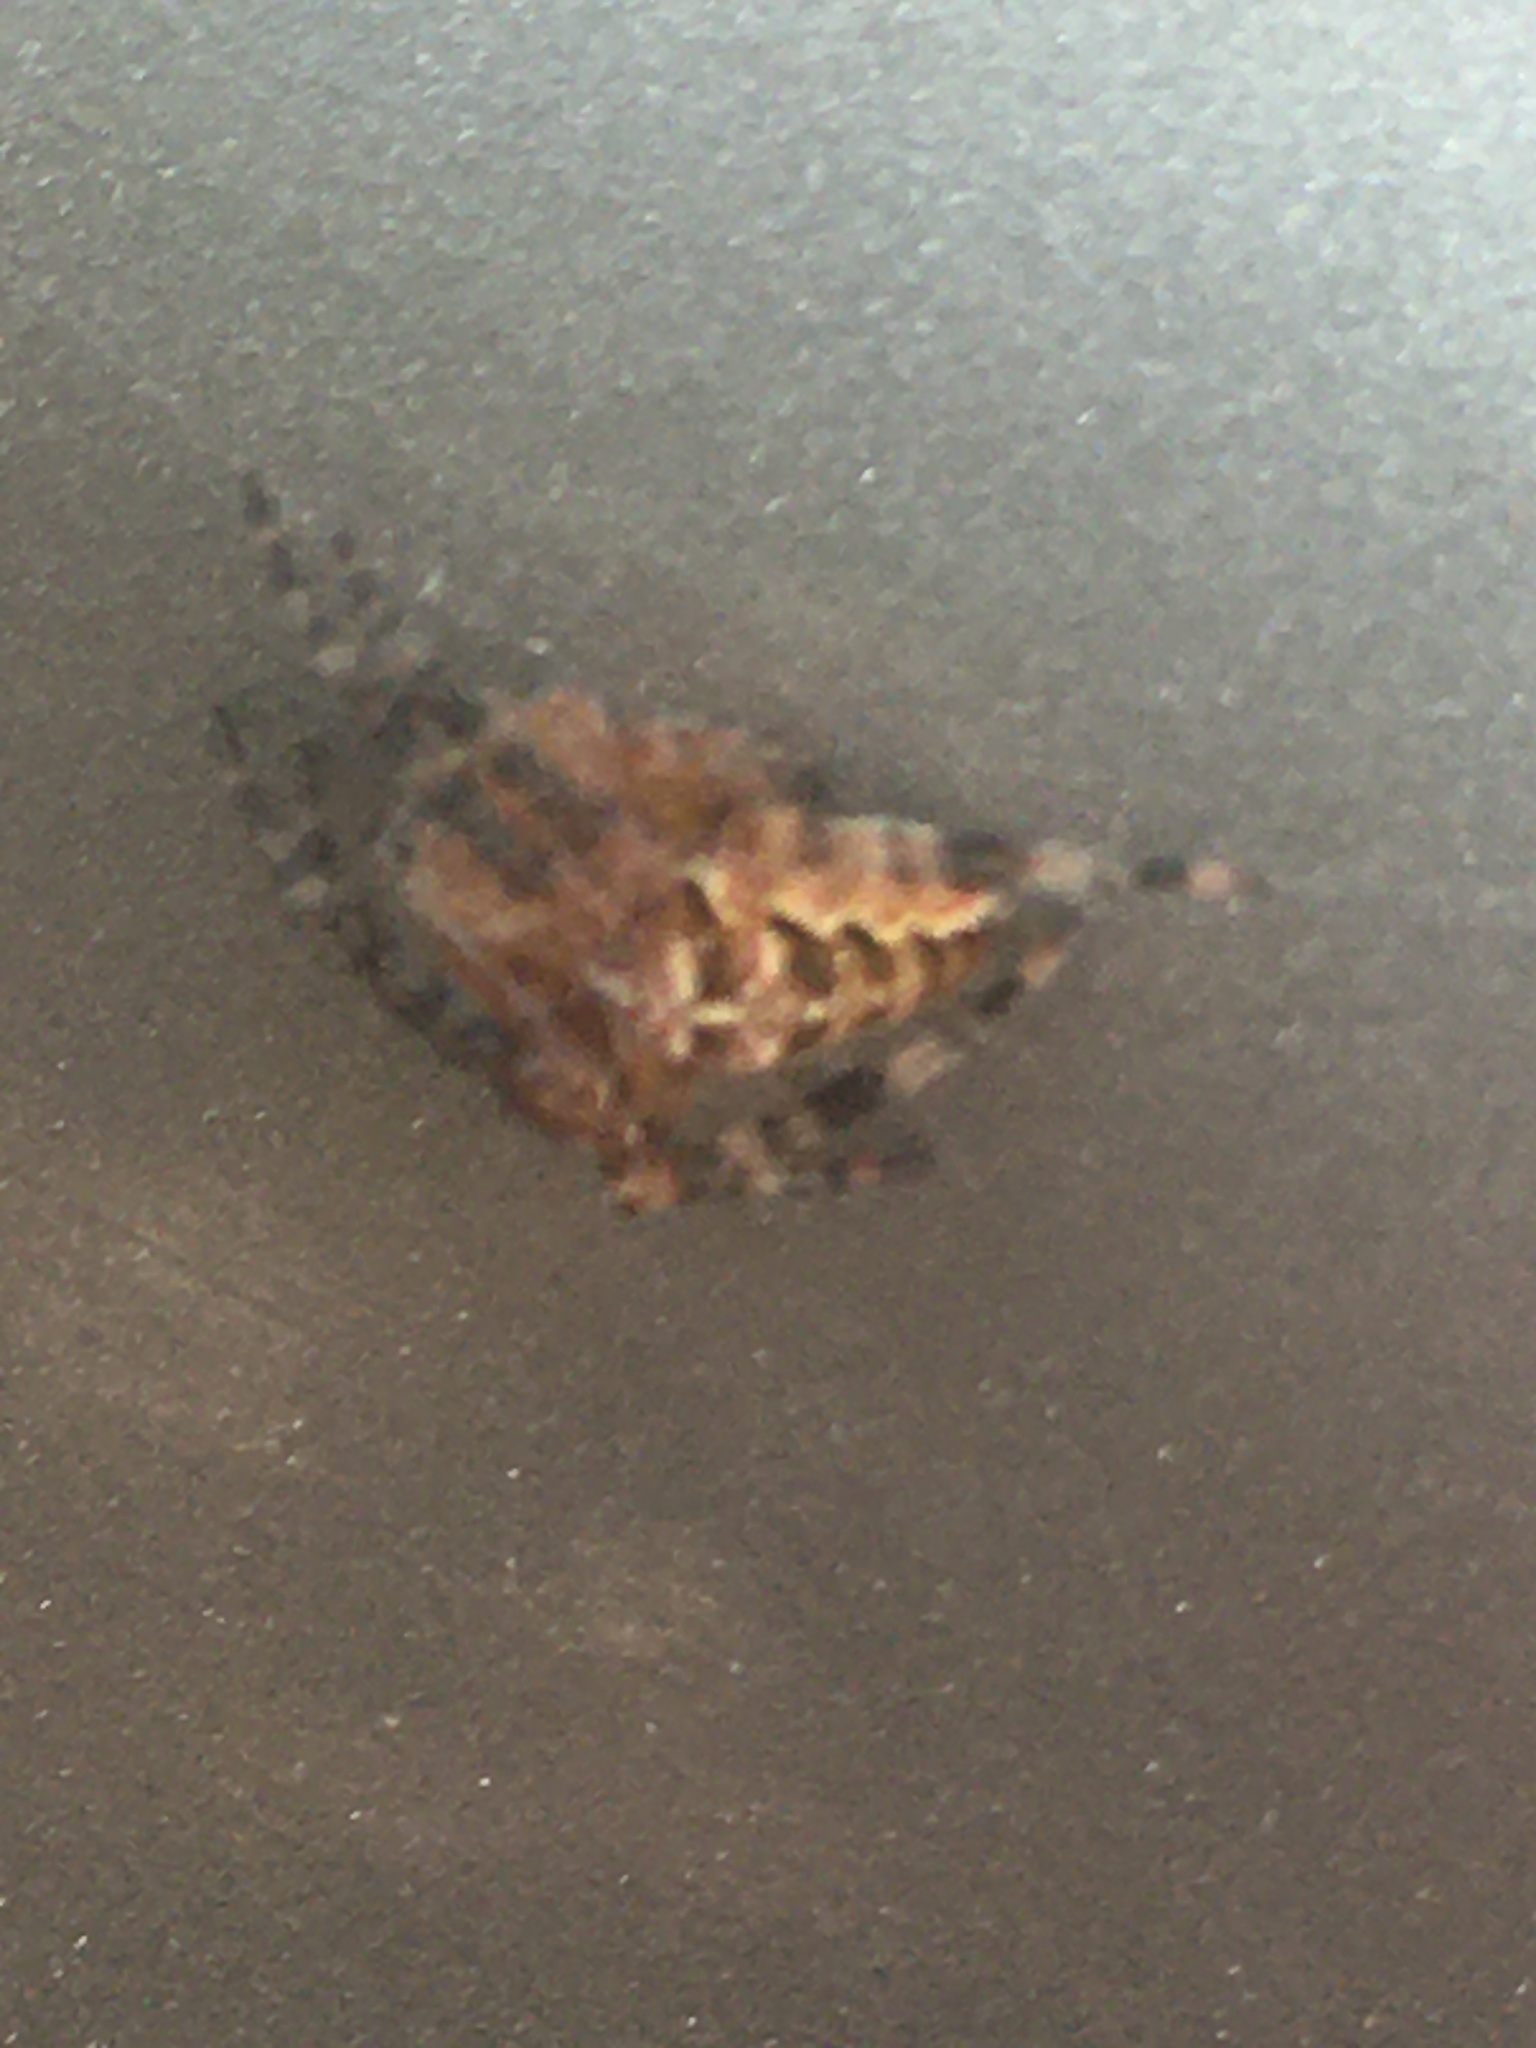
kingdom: Animalia
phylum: Arthropoda
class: Arachnida
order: Araneae
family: Araneidae
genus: Araneus
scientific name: Araneus diadematus
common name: Cross orbweaver
